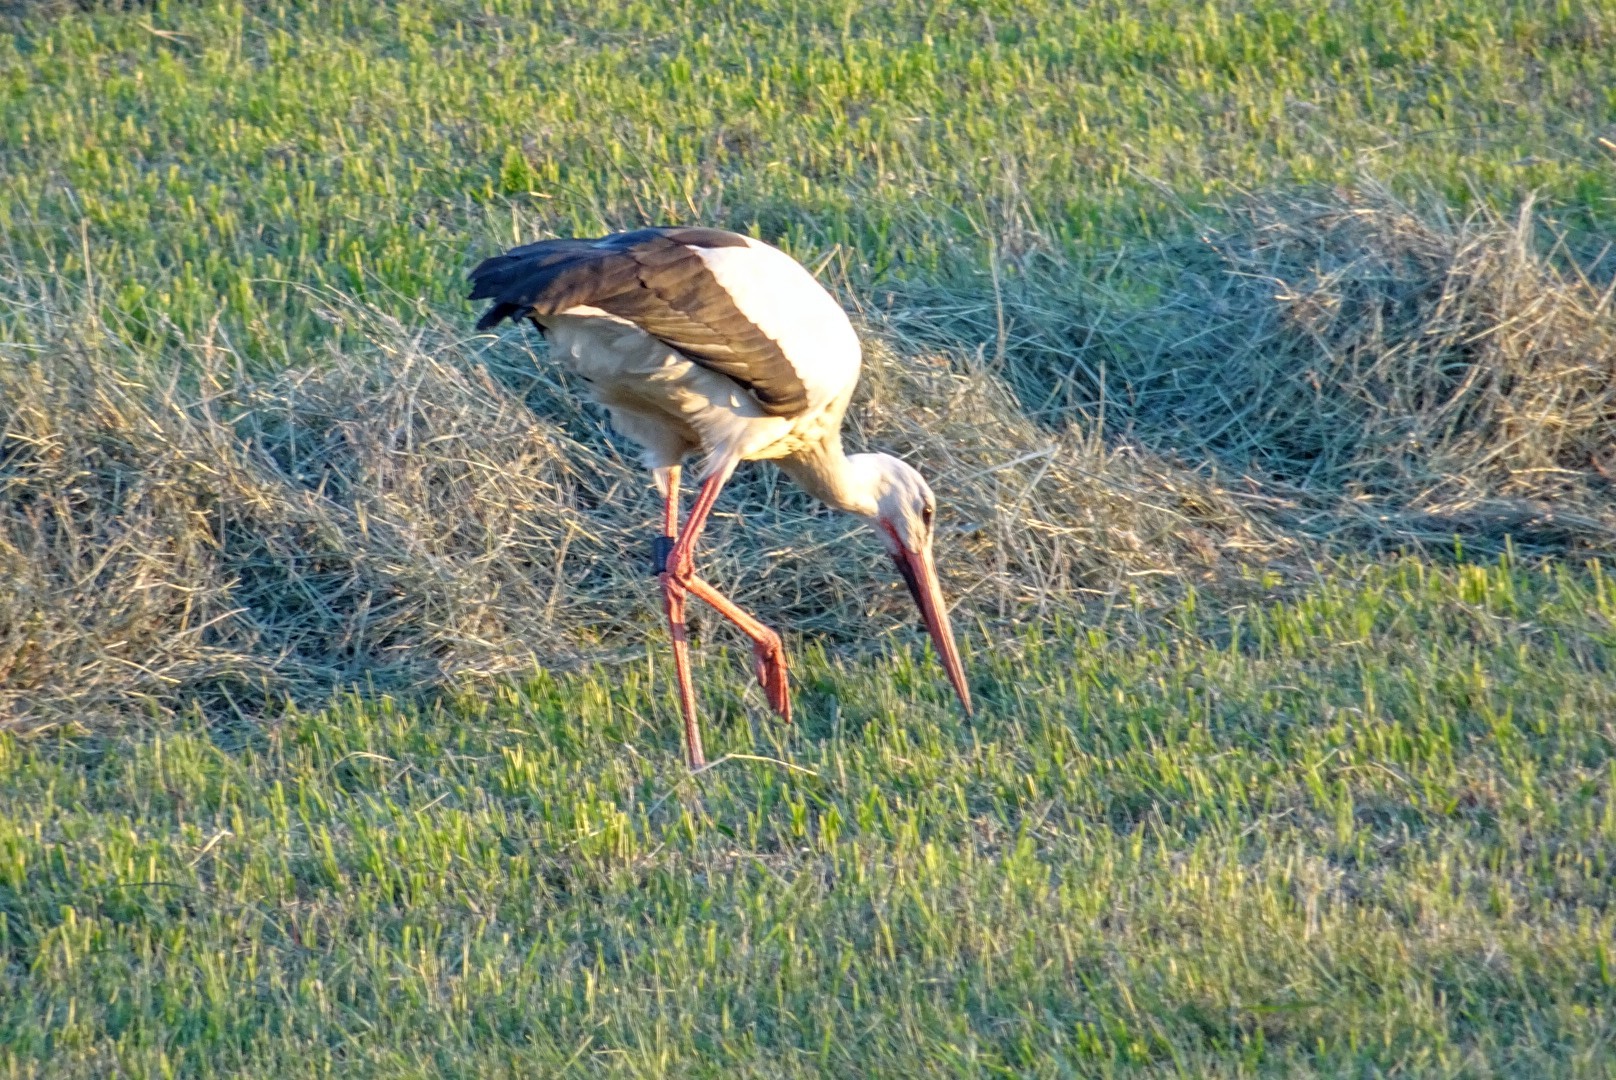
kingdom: Animalia
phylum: Chordata
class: Aves
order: Ciconiiformes
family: Ciconiidae
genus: Ciconia
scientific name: Ciconia ciconia
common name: White stork
